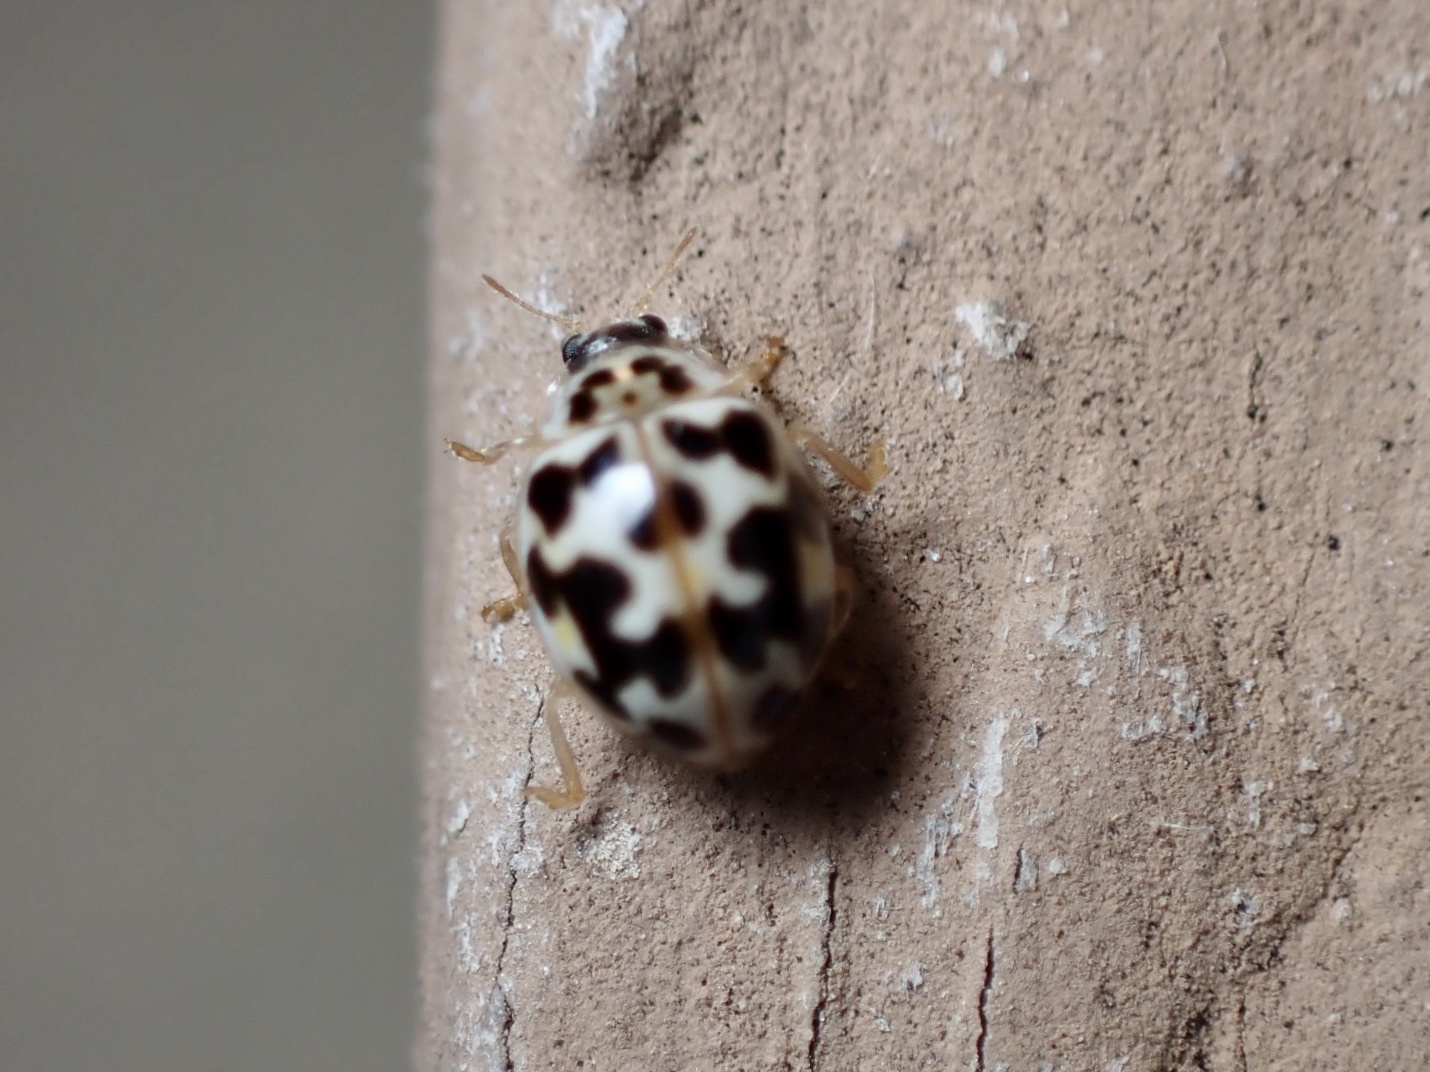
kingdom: Animalia
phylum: Arthropoda
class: Insecta
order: Coleoptera
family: Coccinellidae
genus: Psyllobora
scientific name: Psyllobora vigintimaculata
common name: Ladybird beetle
